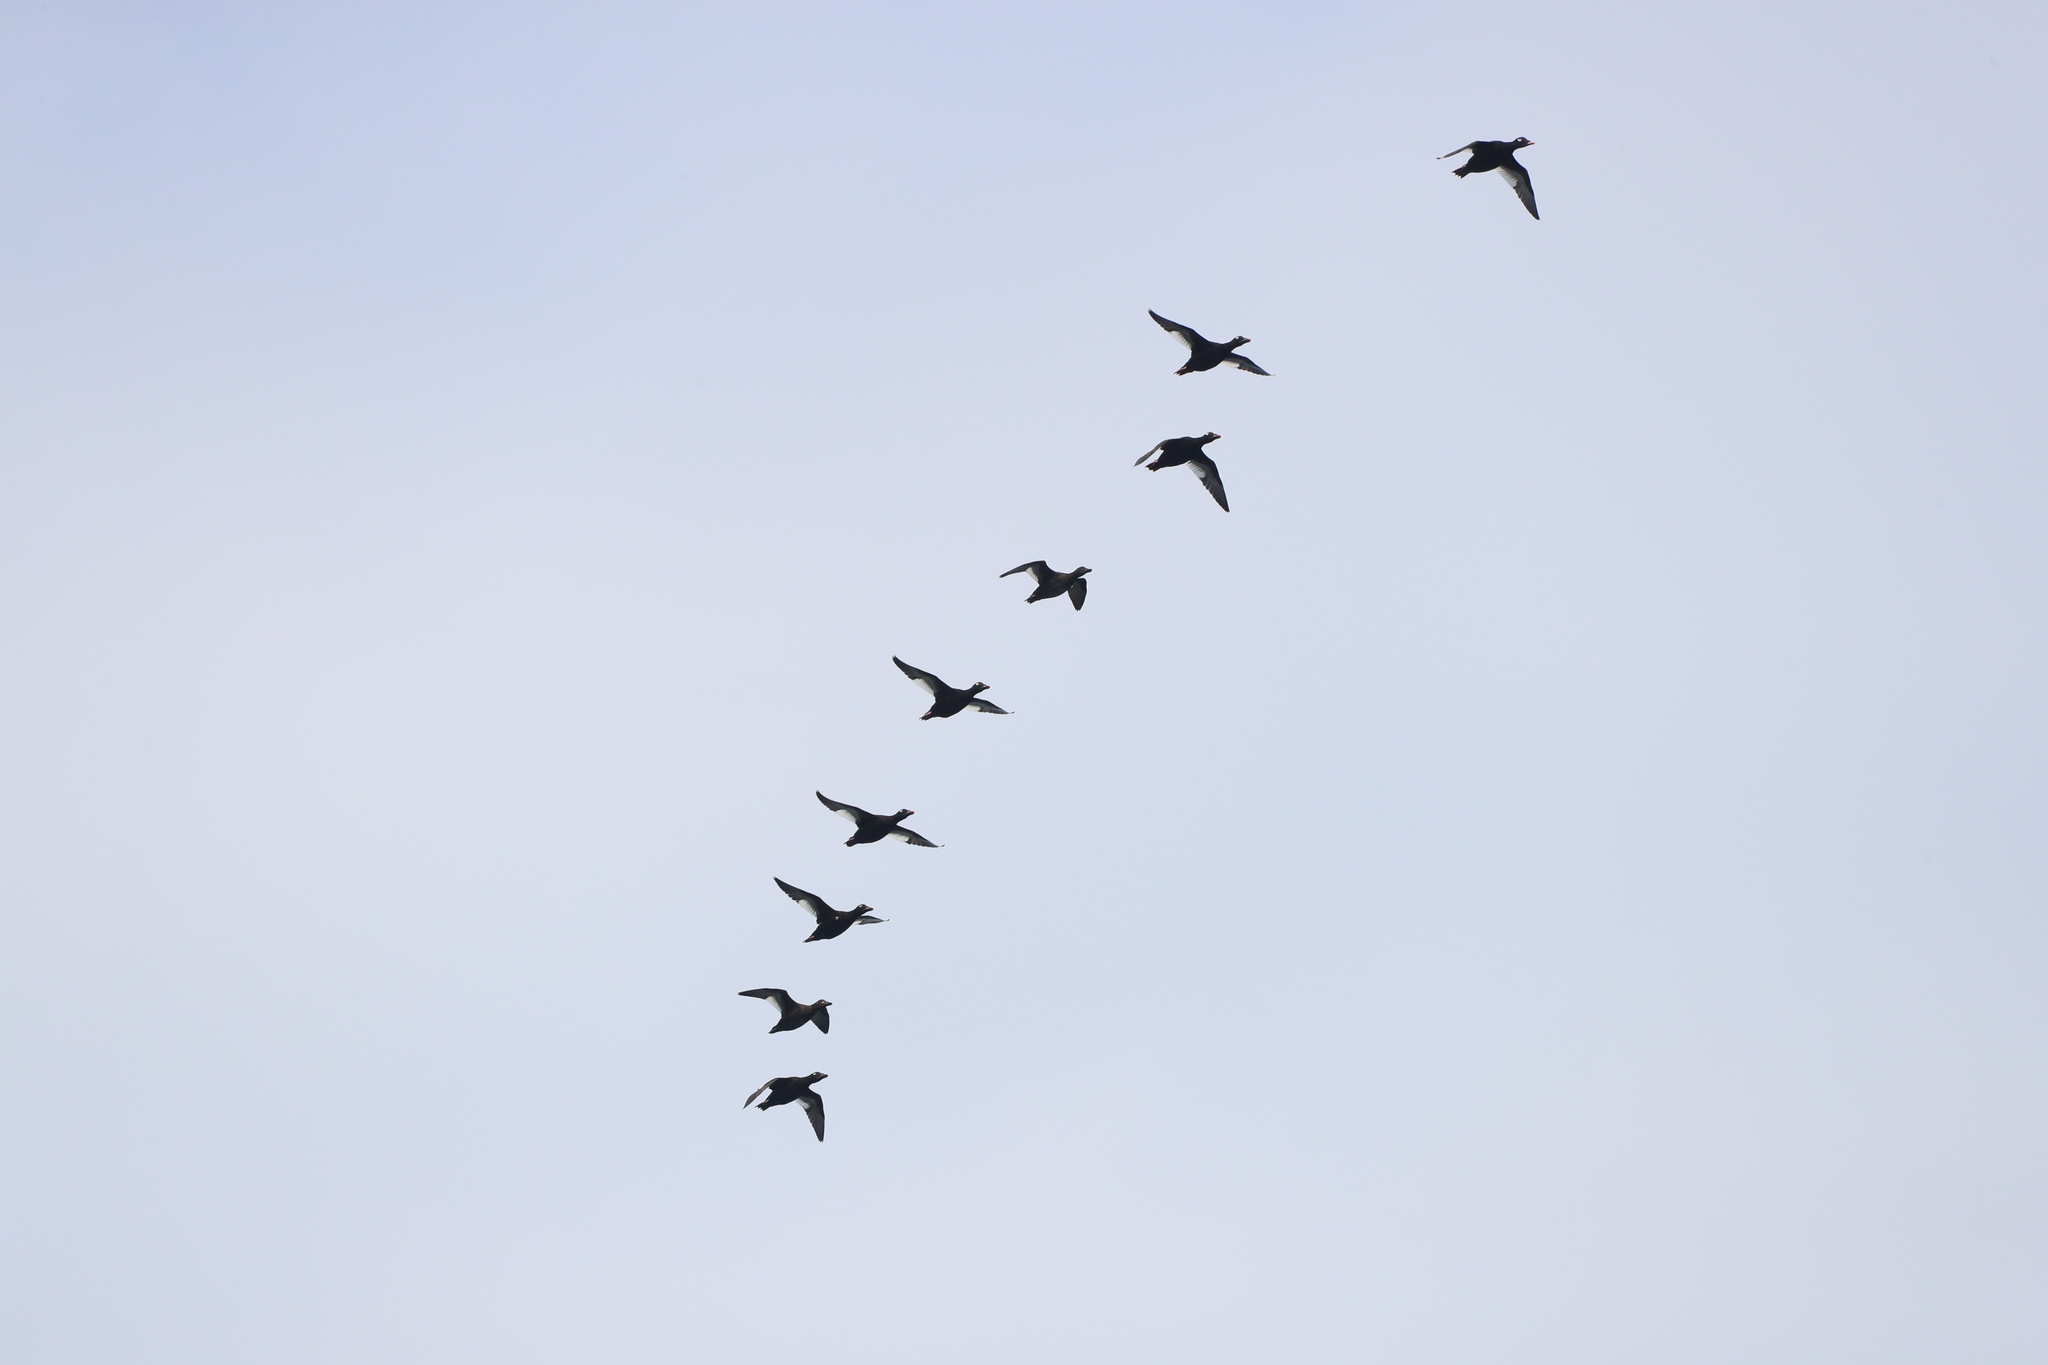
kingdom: Animalia
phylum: Chordata
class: Aves
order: Anseriformes
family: Anatidae
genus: Melanitta
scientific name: Melanitta deglandi
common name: White-winged scoter
